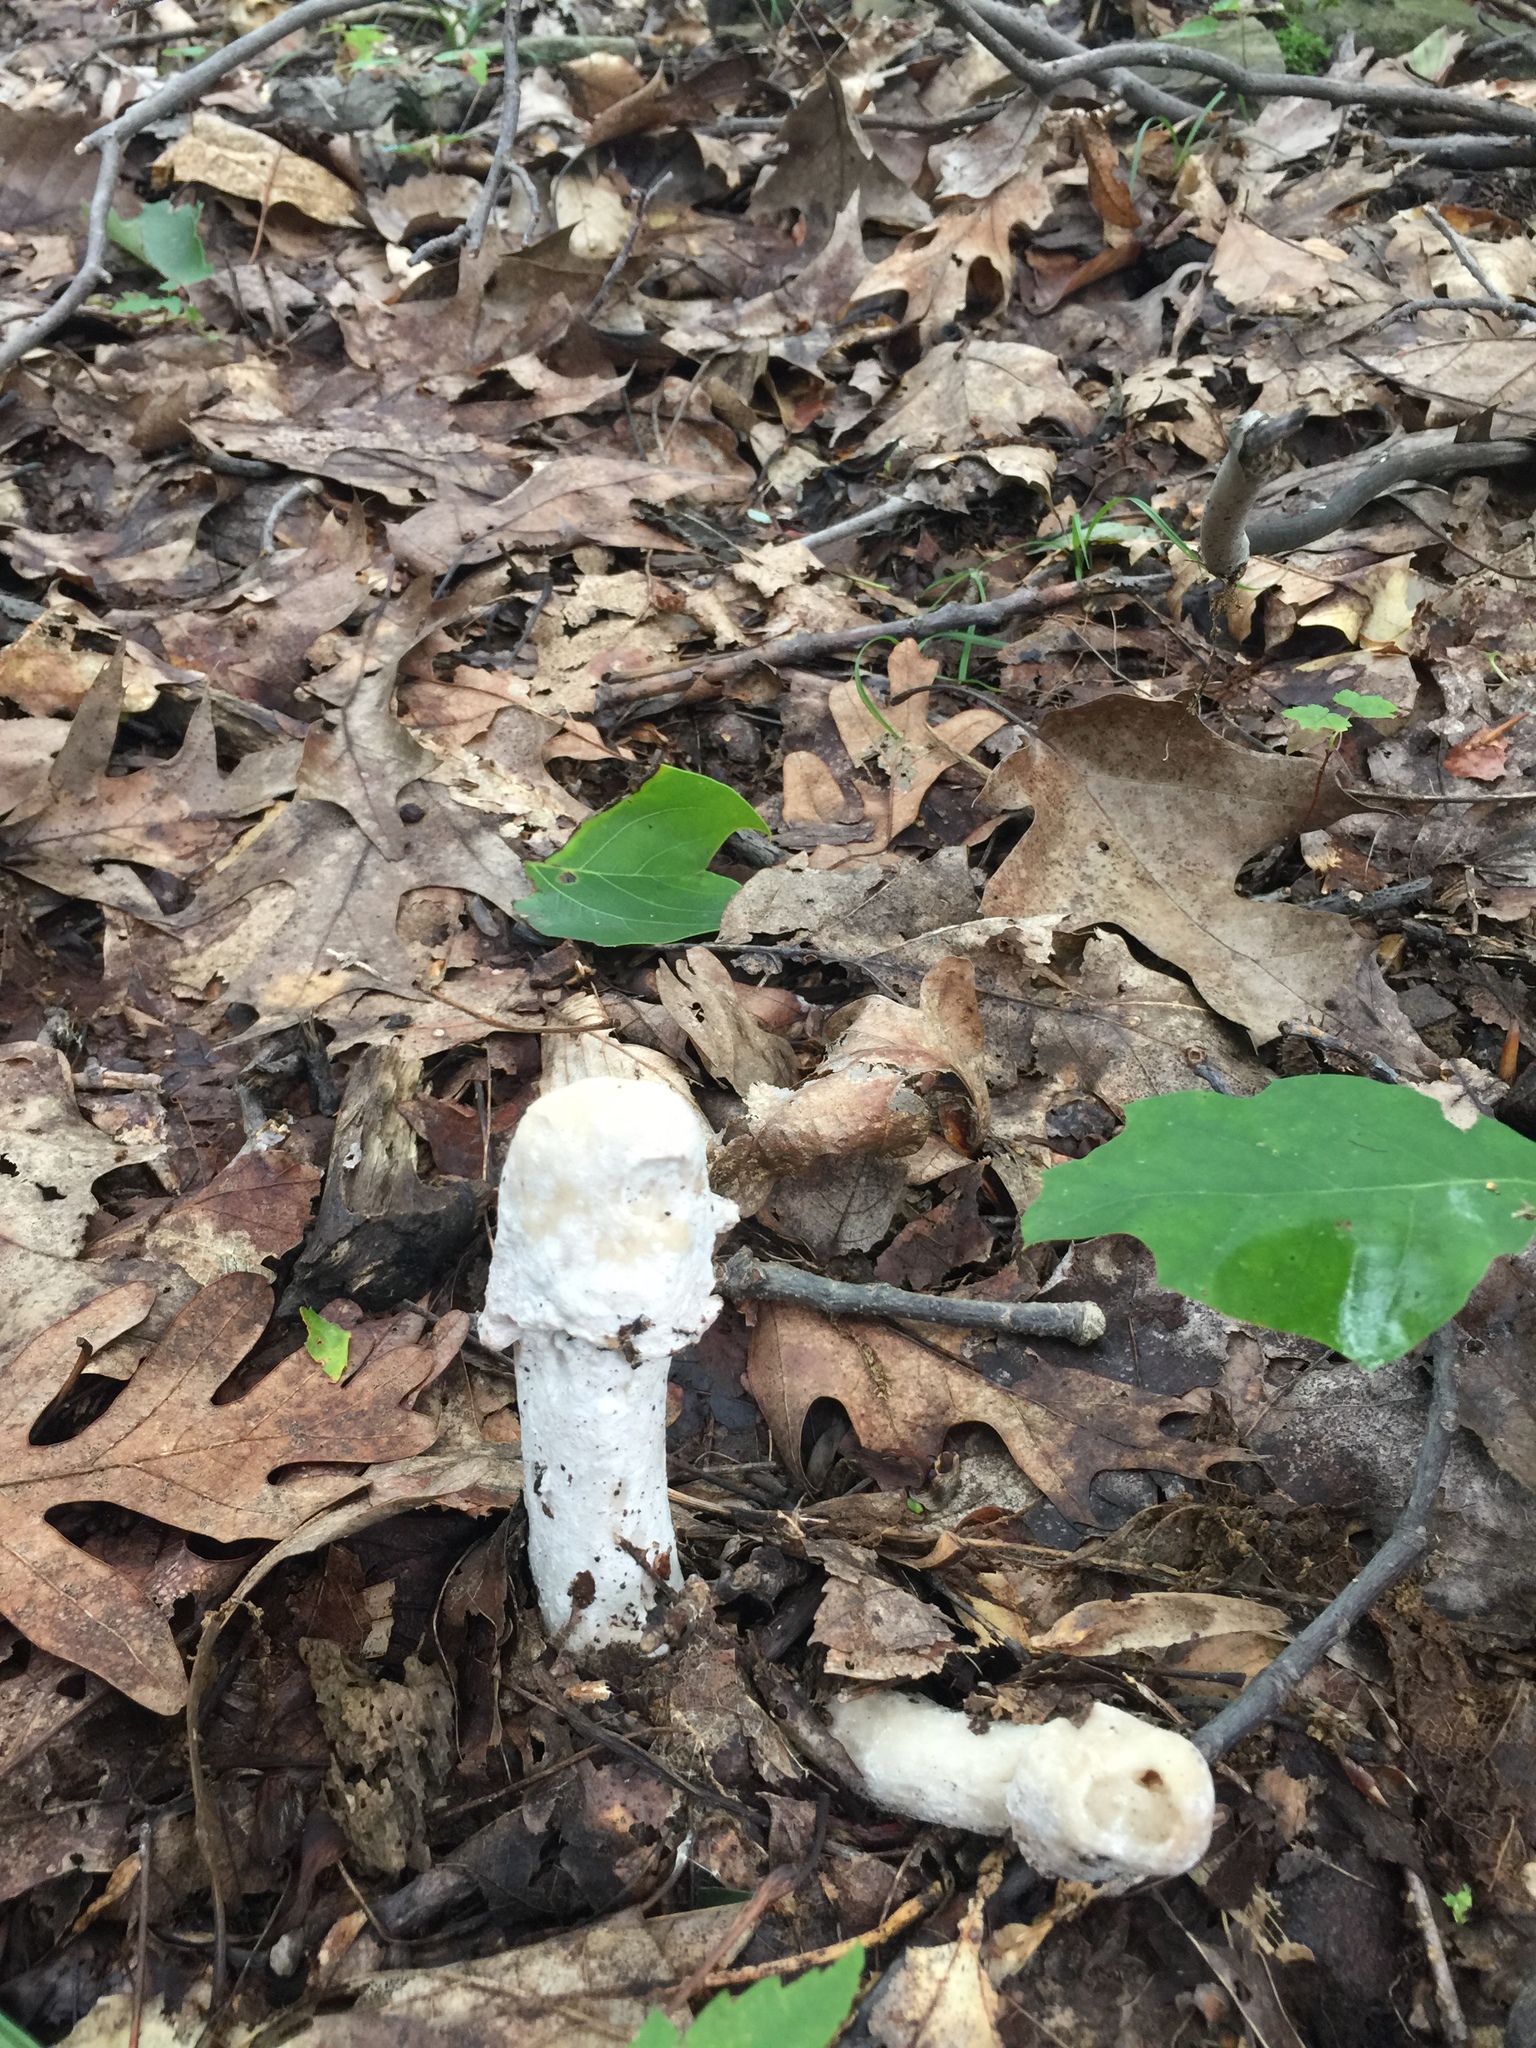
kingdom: Fungi
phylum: Ascomycota
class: Sordariomycetes
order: Hypocreales
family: Hypocreaceae
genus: Hypomyces
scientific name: Hypomyces hyalinus
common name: Amanita mold
